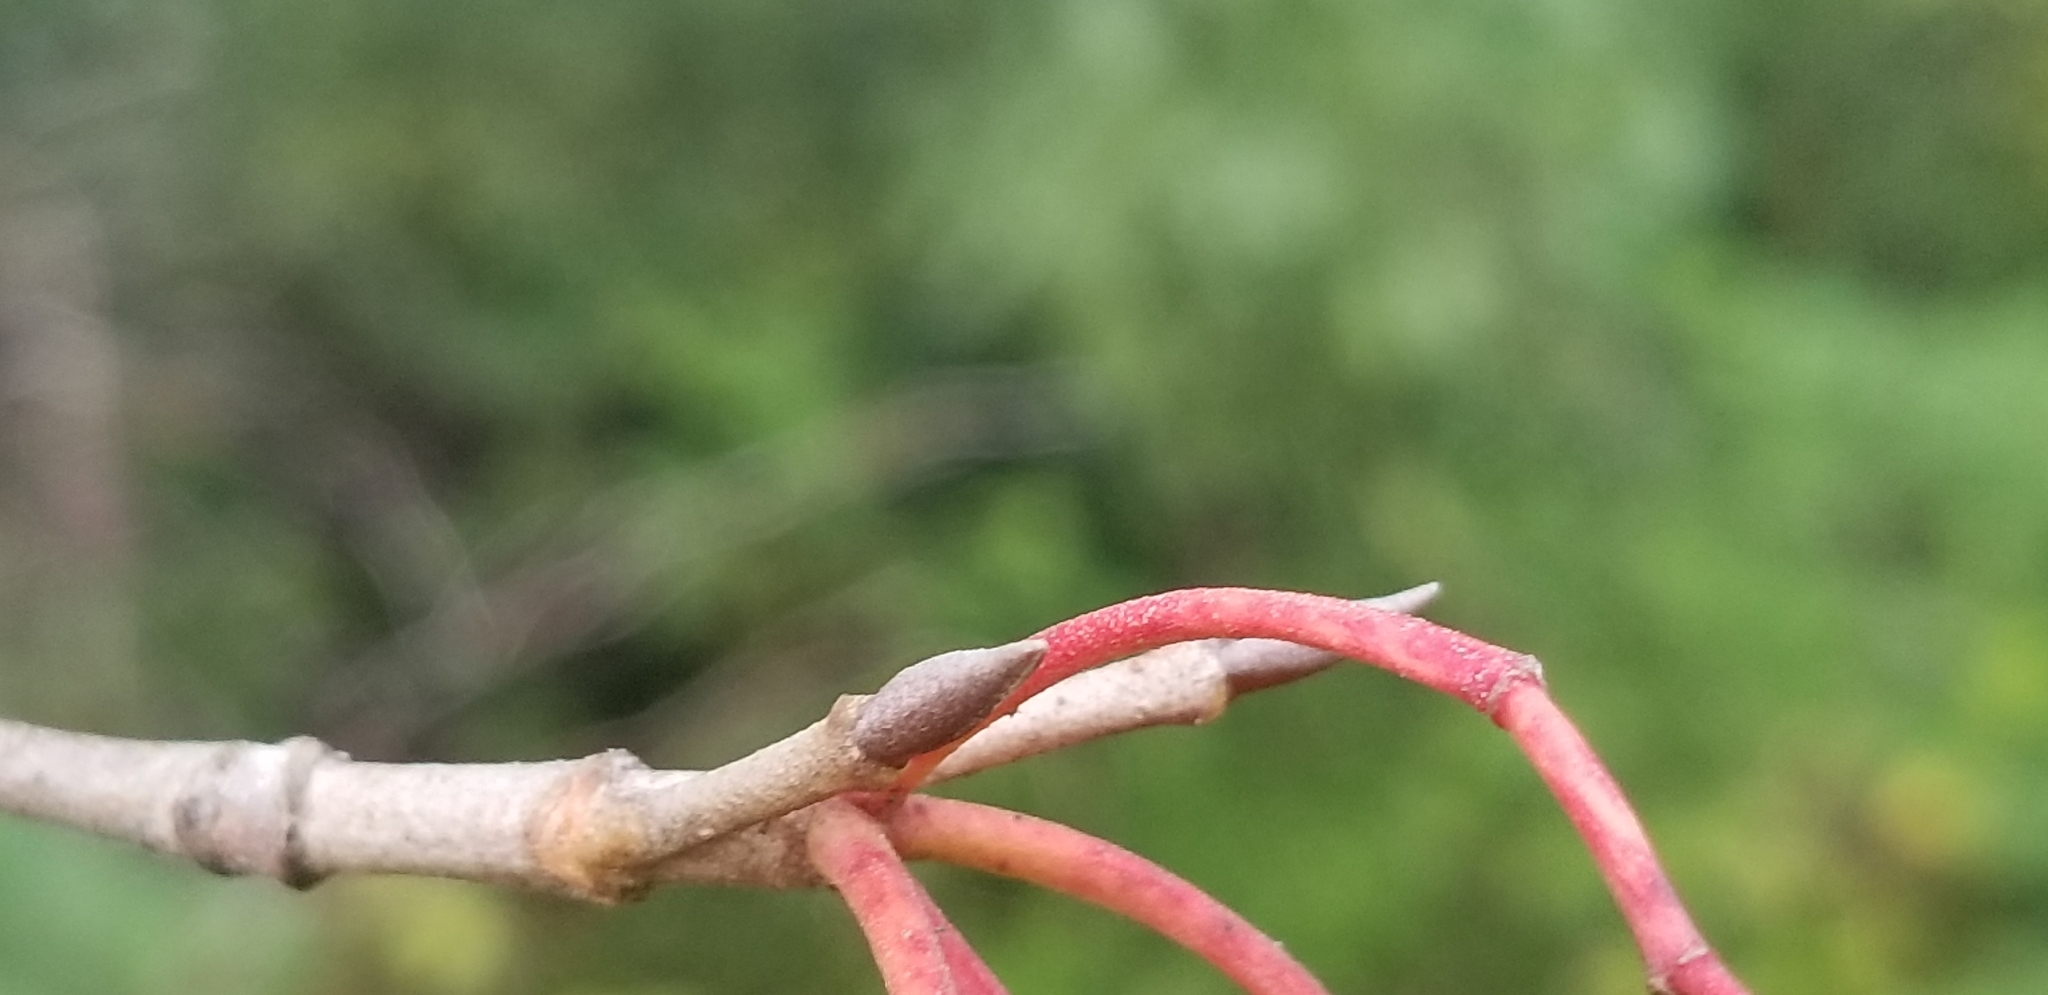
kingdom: Plantae
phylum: Tracheophyta
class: Magnoliopsida
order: Dipsacales
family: Viburnaceae
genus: Viburnum
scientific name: Viburnum lentago
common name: Black haw
